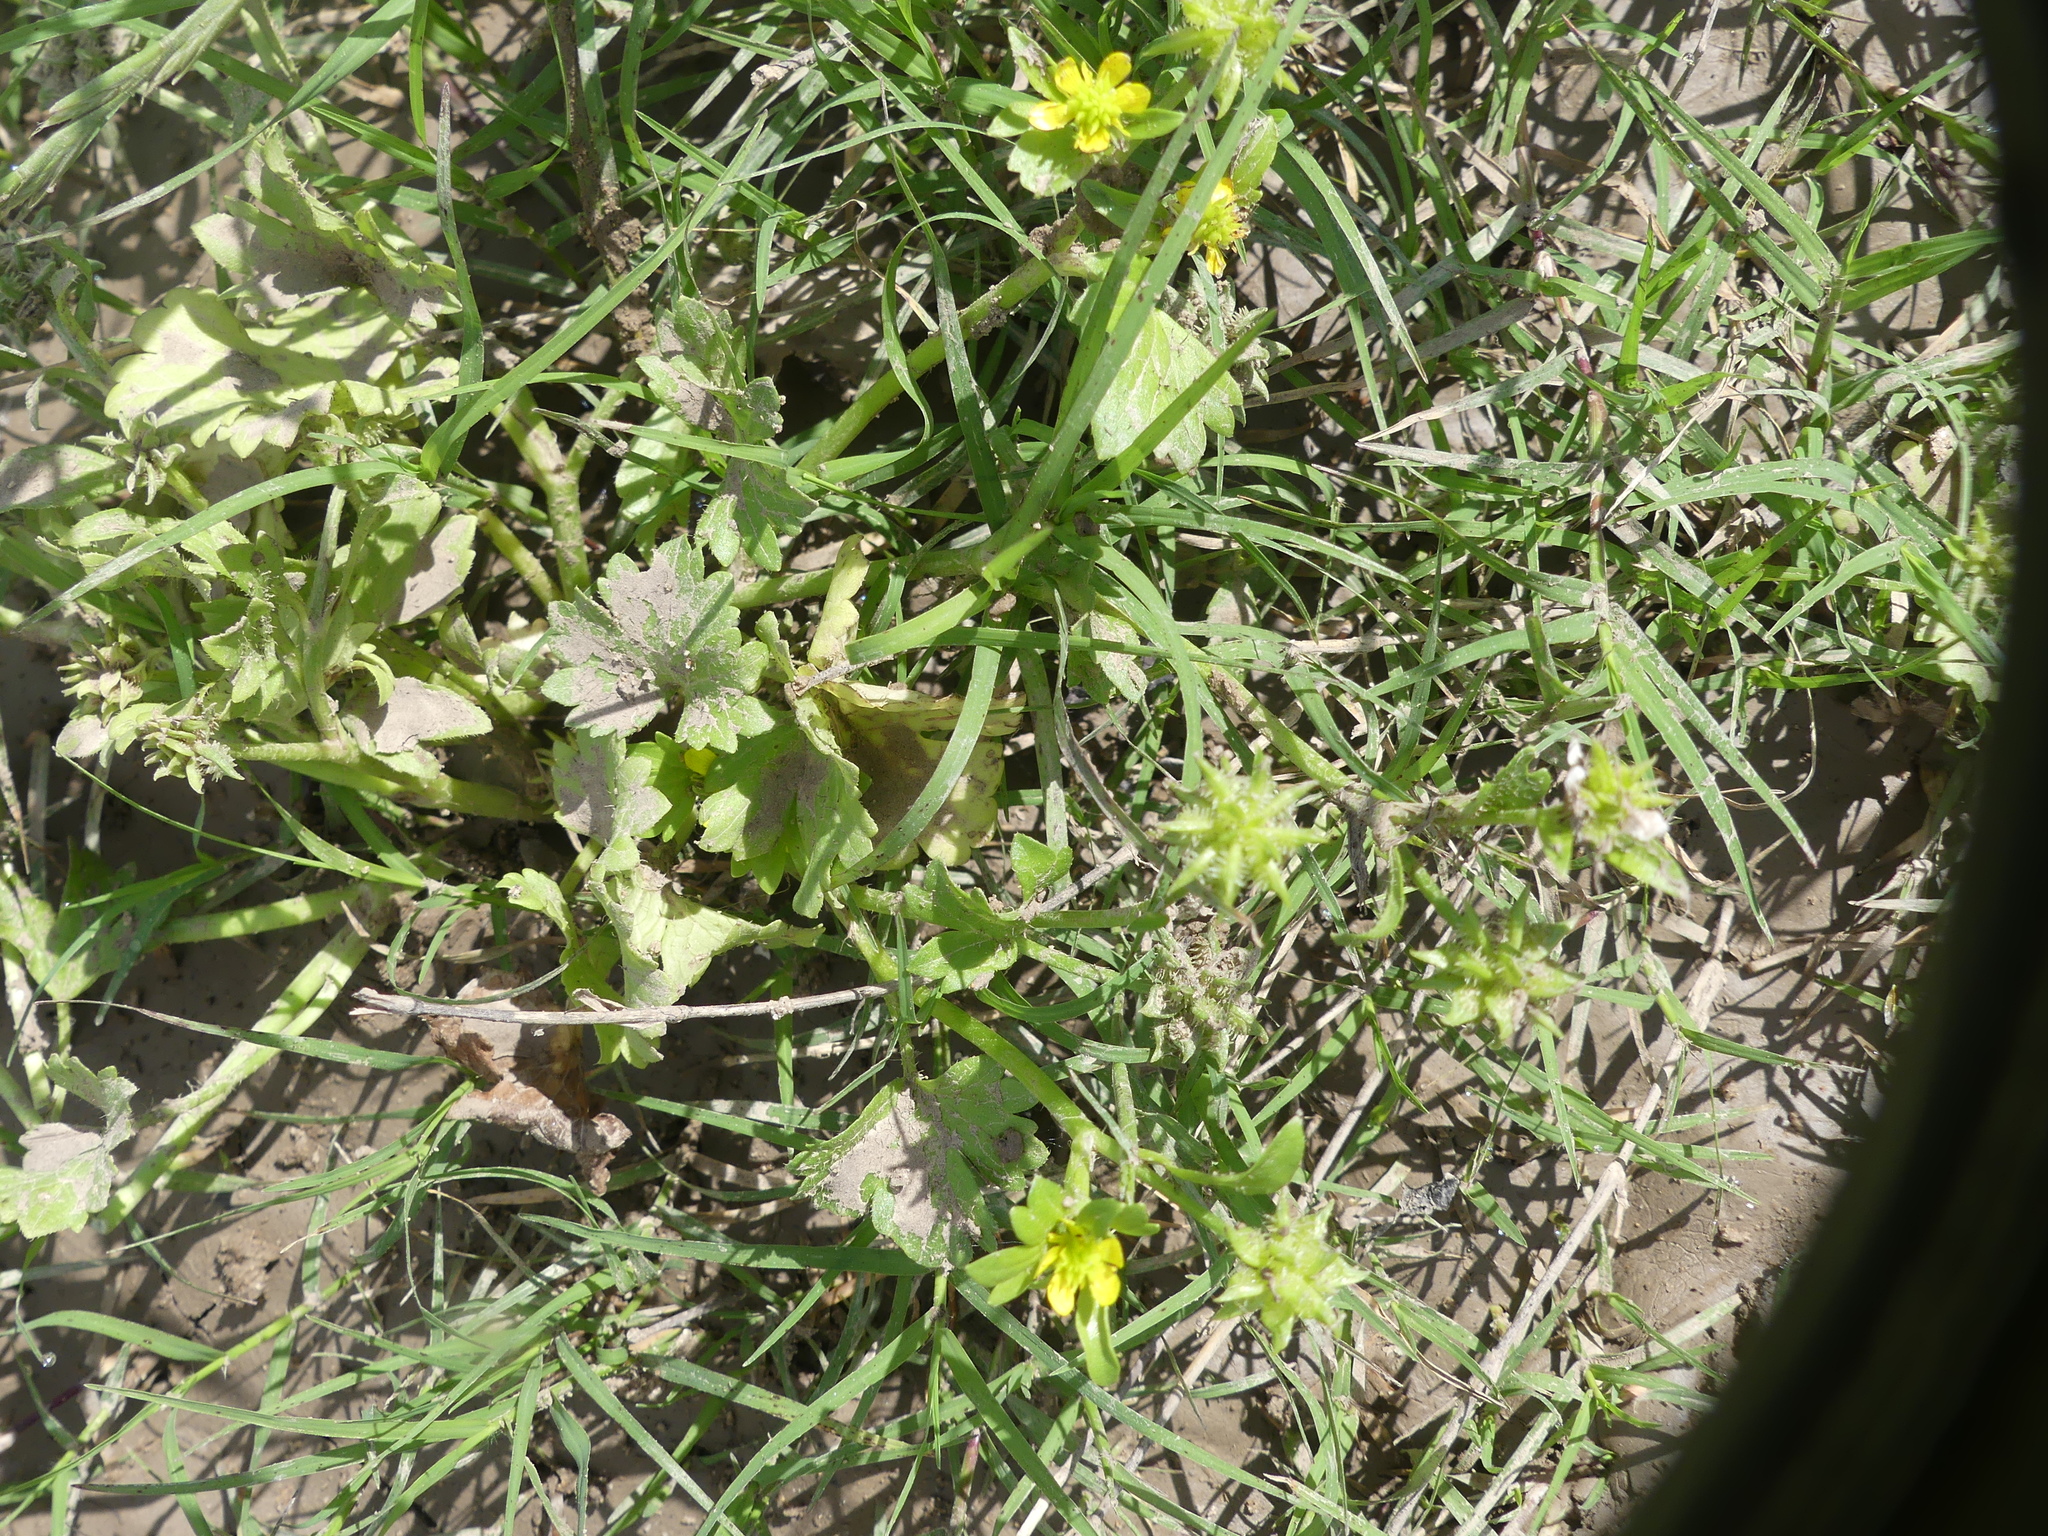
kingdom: Plantae
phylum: Tracheophyta
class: Magnoliopsida
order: Ranunculales
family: Ranunculaceae
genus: Ranunculus
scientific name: Ranunculus muricatus
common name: Rough-fruited buttercup
